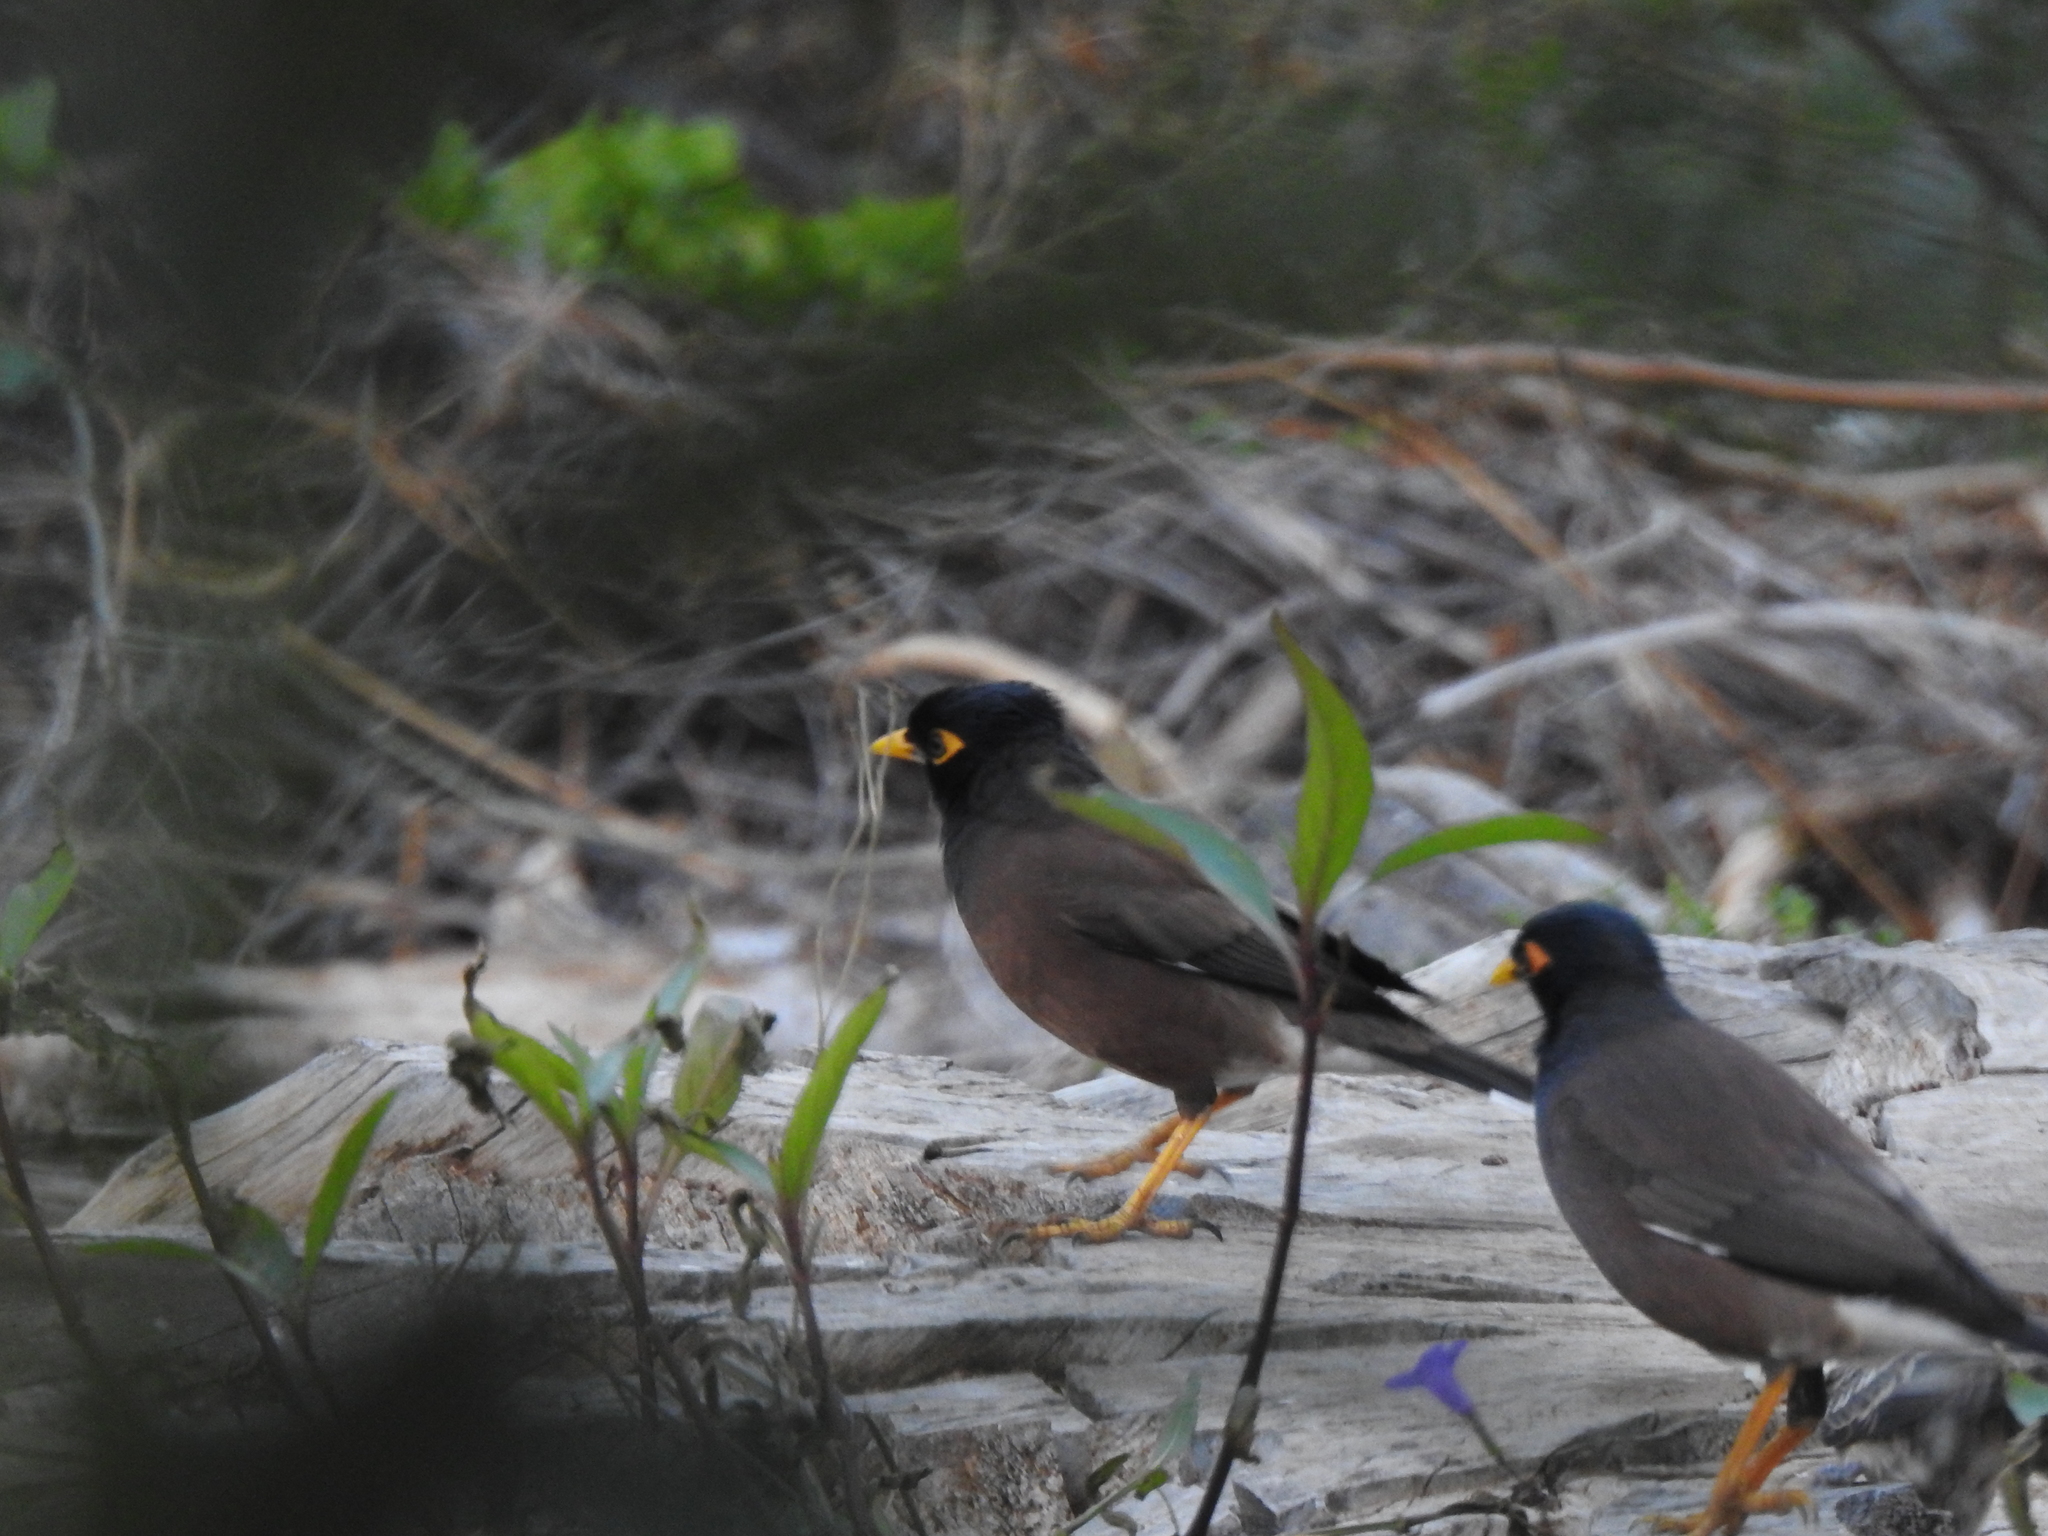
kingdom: Animalia
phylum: Chordata
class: Aves
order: Passeriformes
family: Sturnidae
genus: Acridotheres
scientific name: Acridotheres tristis
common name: Common myna
